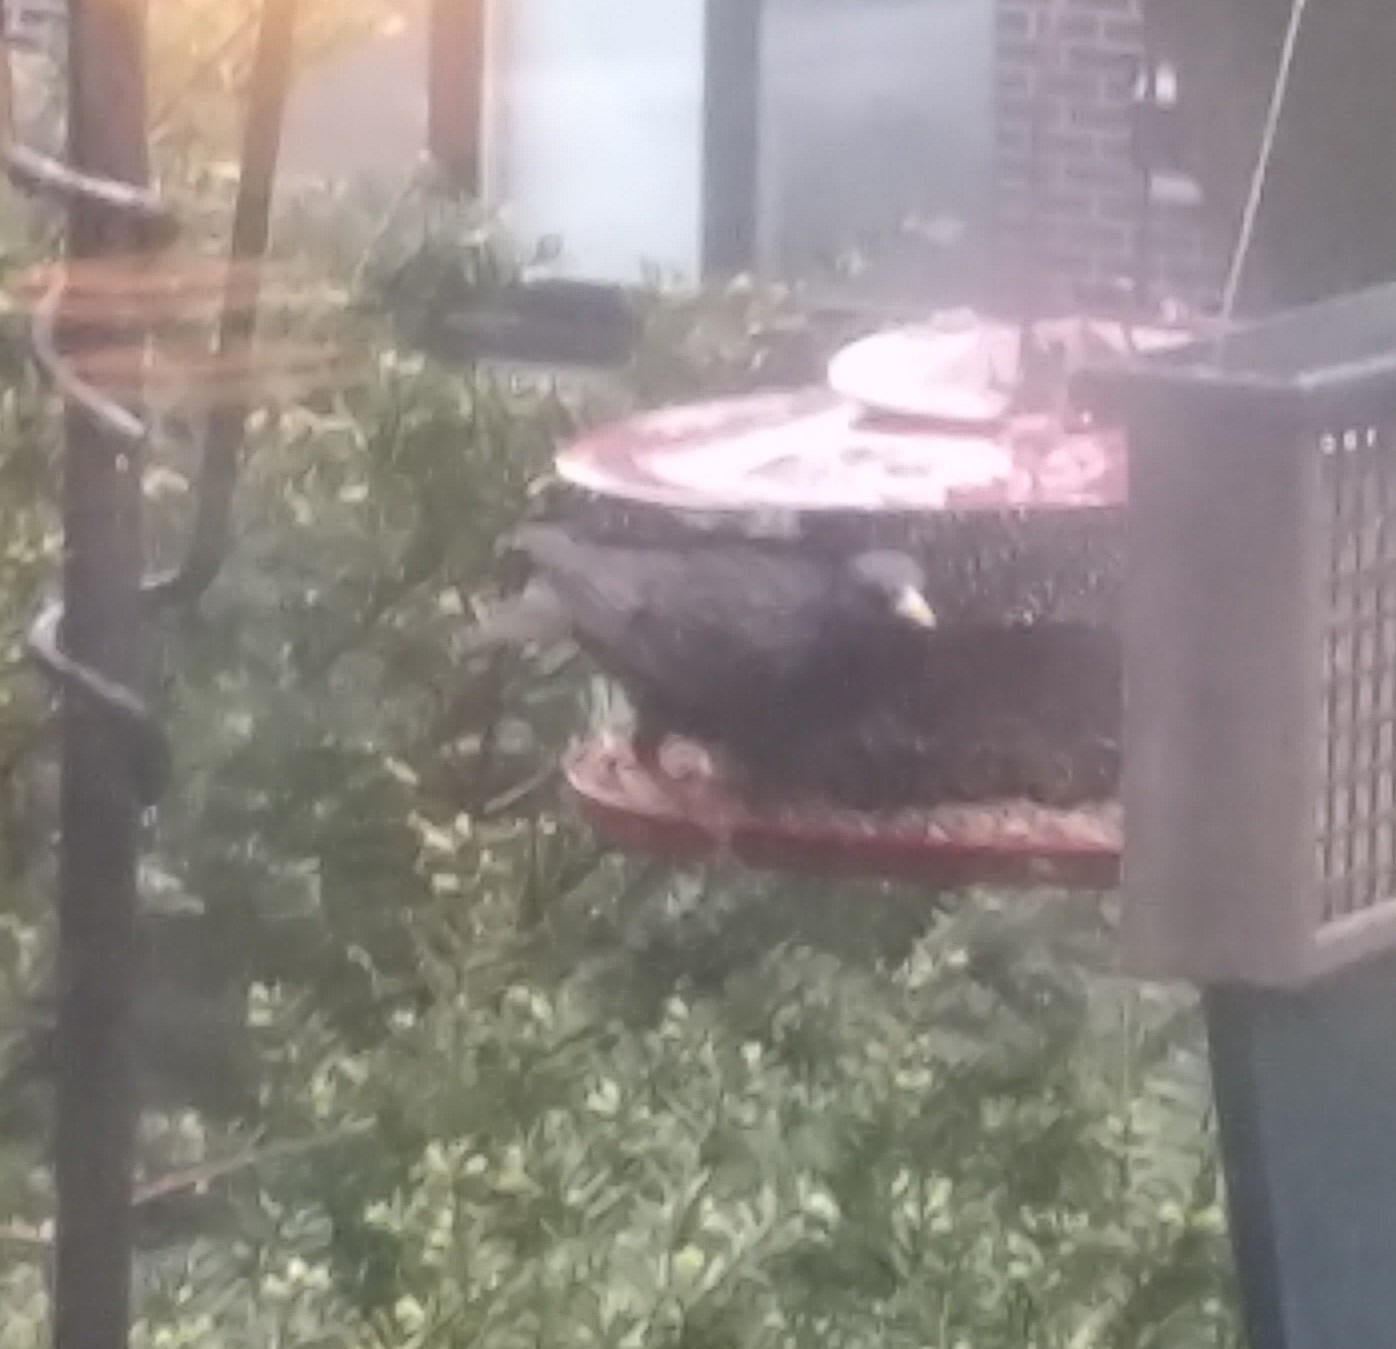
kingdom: Animalia
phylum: Chordata
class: Aves
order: Passeriformes
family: Sturnidae
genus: Sturnus
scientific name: Sturnus vulgaris
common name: Common starling
